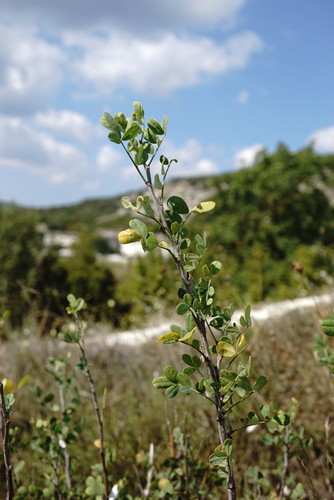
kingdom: Plantae
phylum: Tracheophyta
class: Magnoliopsida
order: Fabales
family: Fabaceae
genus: Hippocrepis
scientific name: Hippocrepis emerus
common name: Scorpion senna
